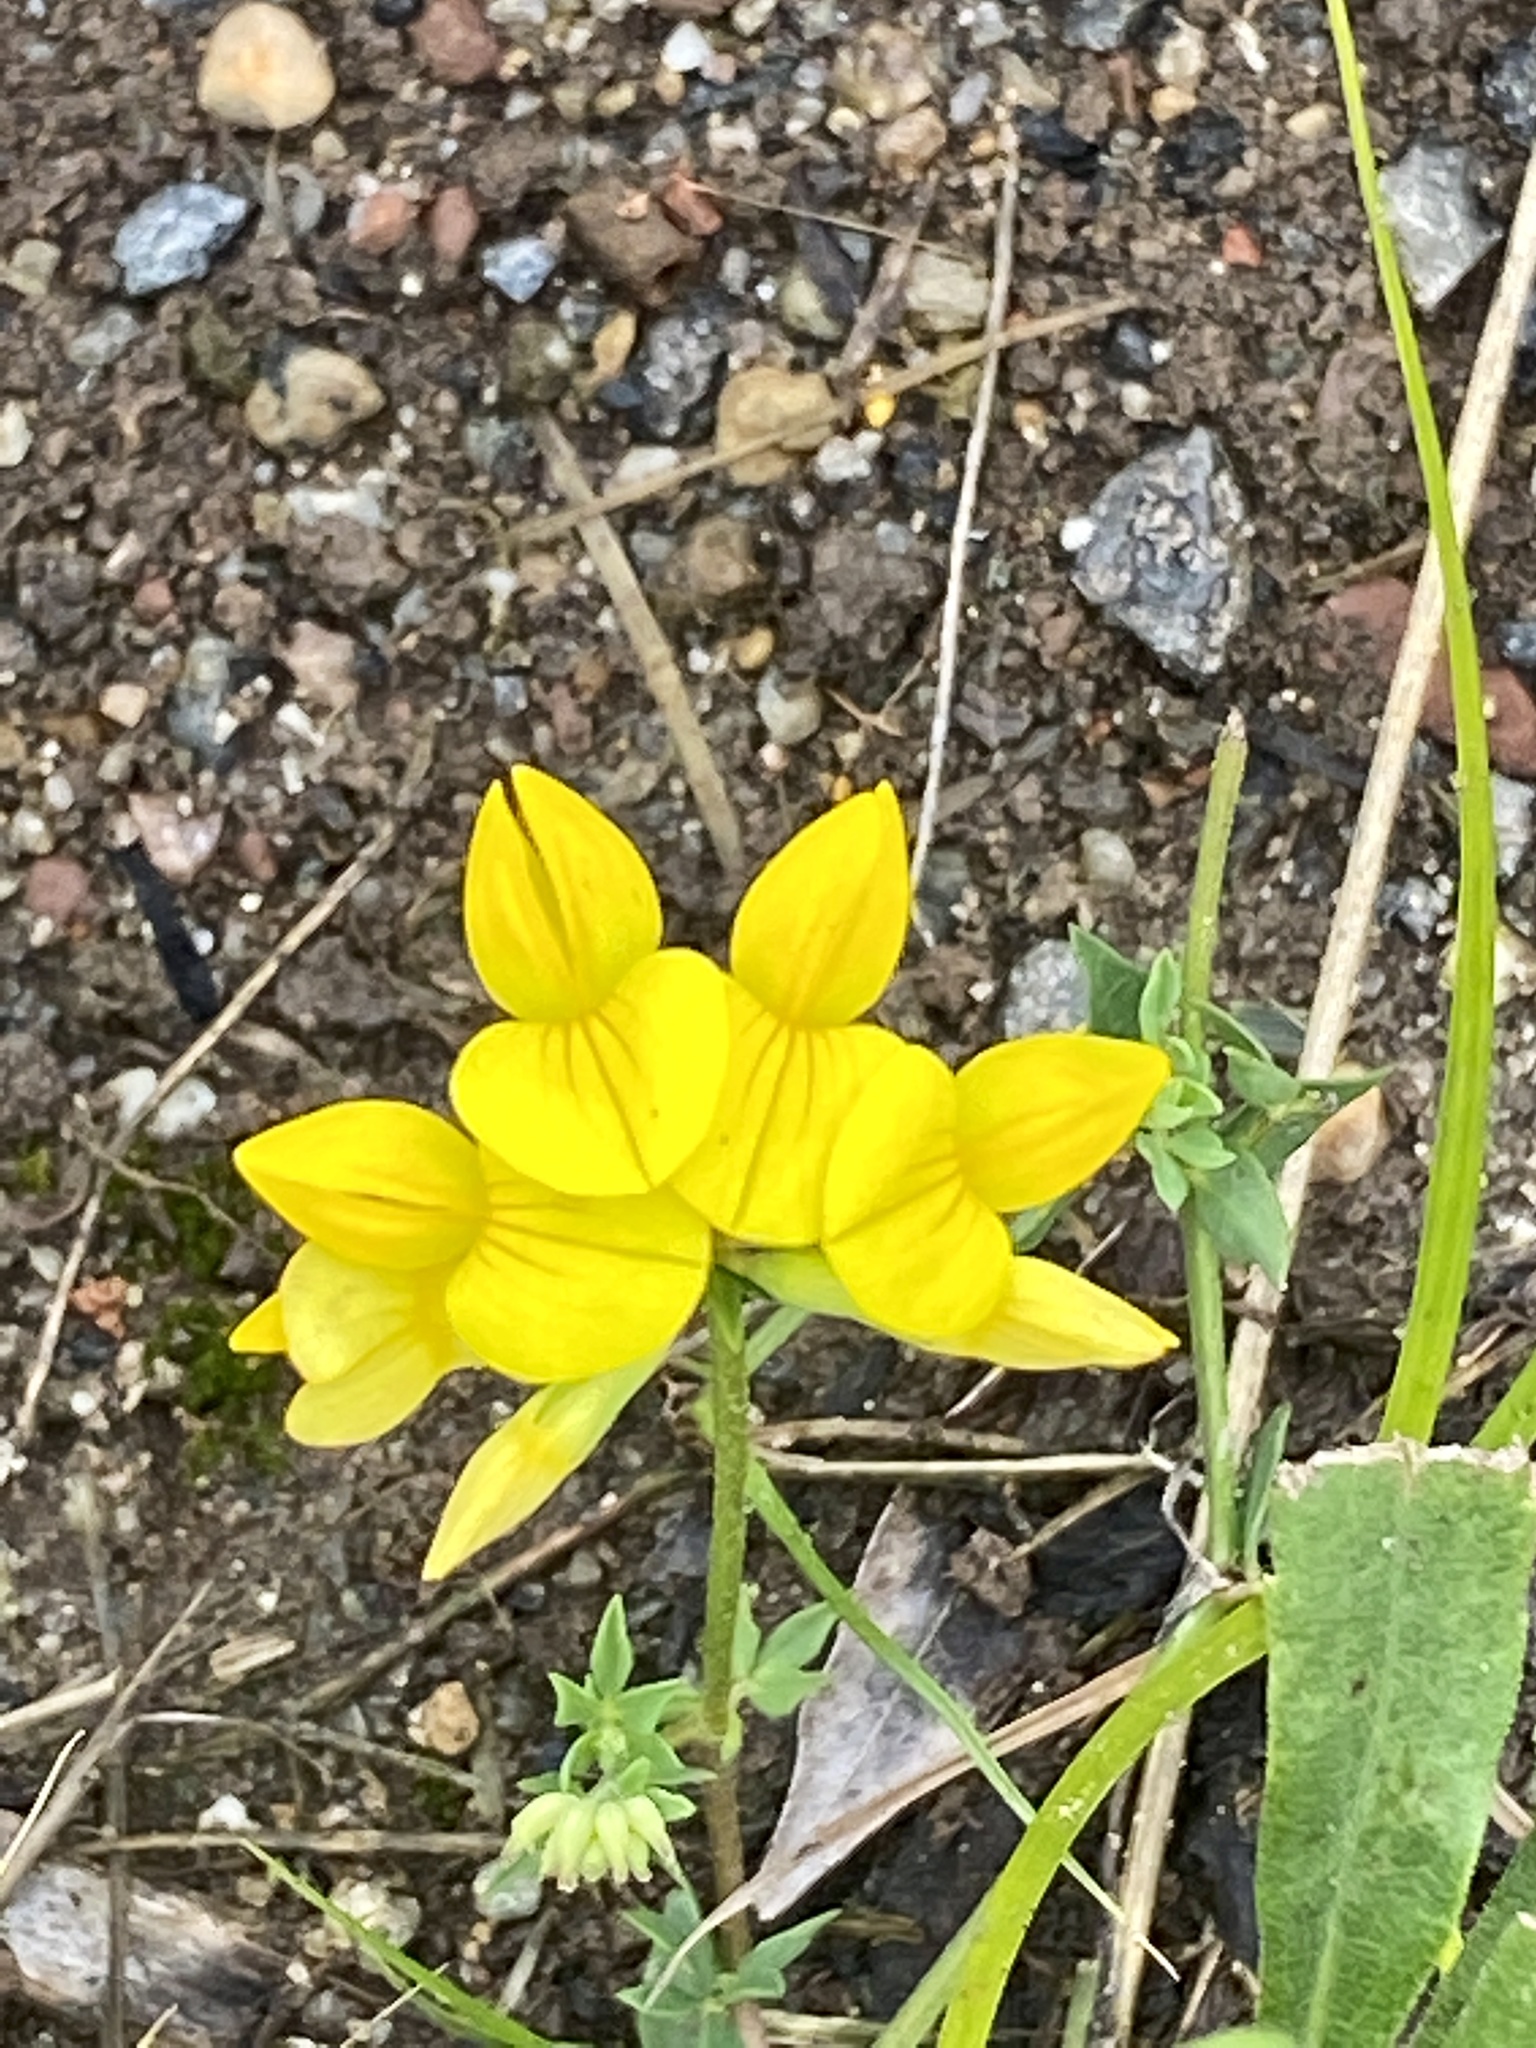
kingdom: Plantae
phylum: Tracheophyta
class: Magnoliopsida
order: Fabales
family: Fabaceae
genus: Lotus
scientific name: Lotus corniculatus
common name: Common bird's-foot-trefoil
